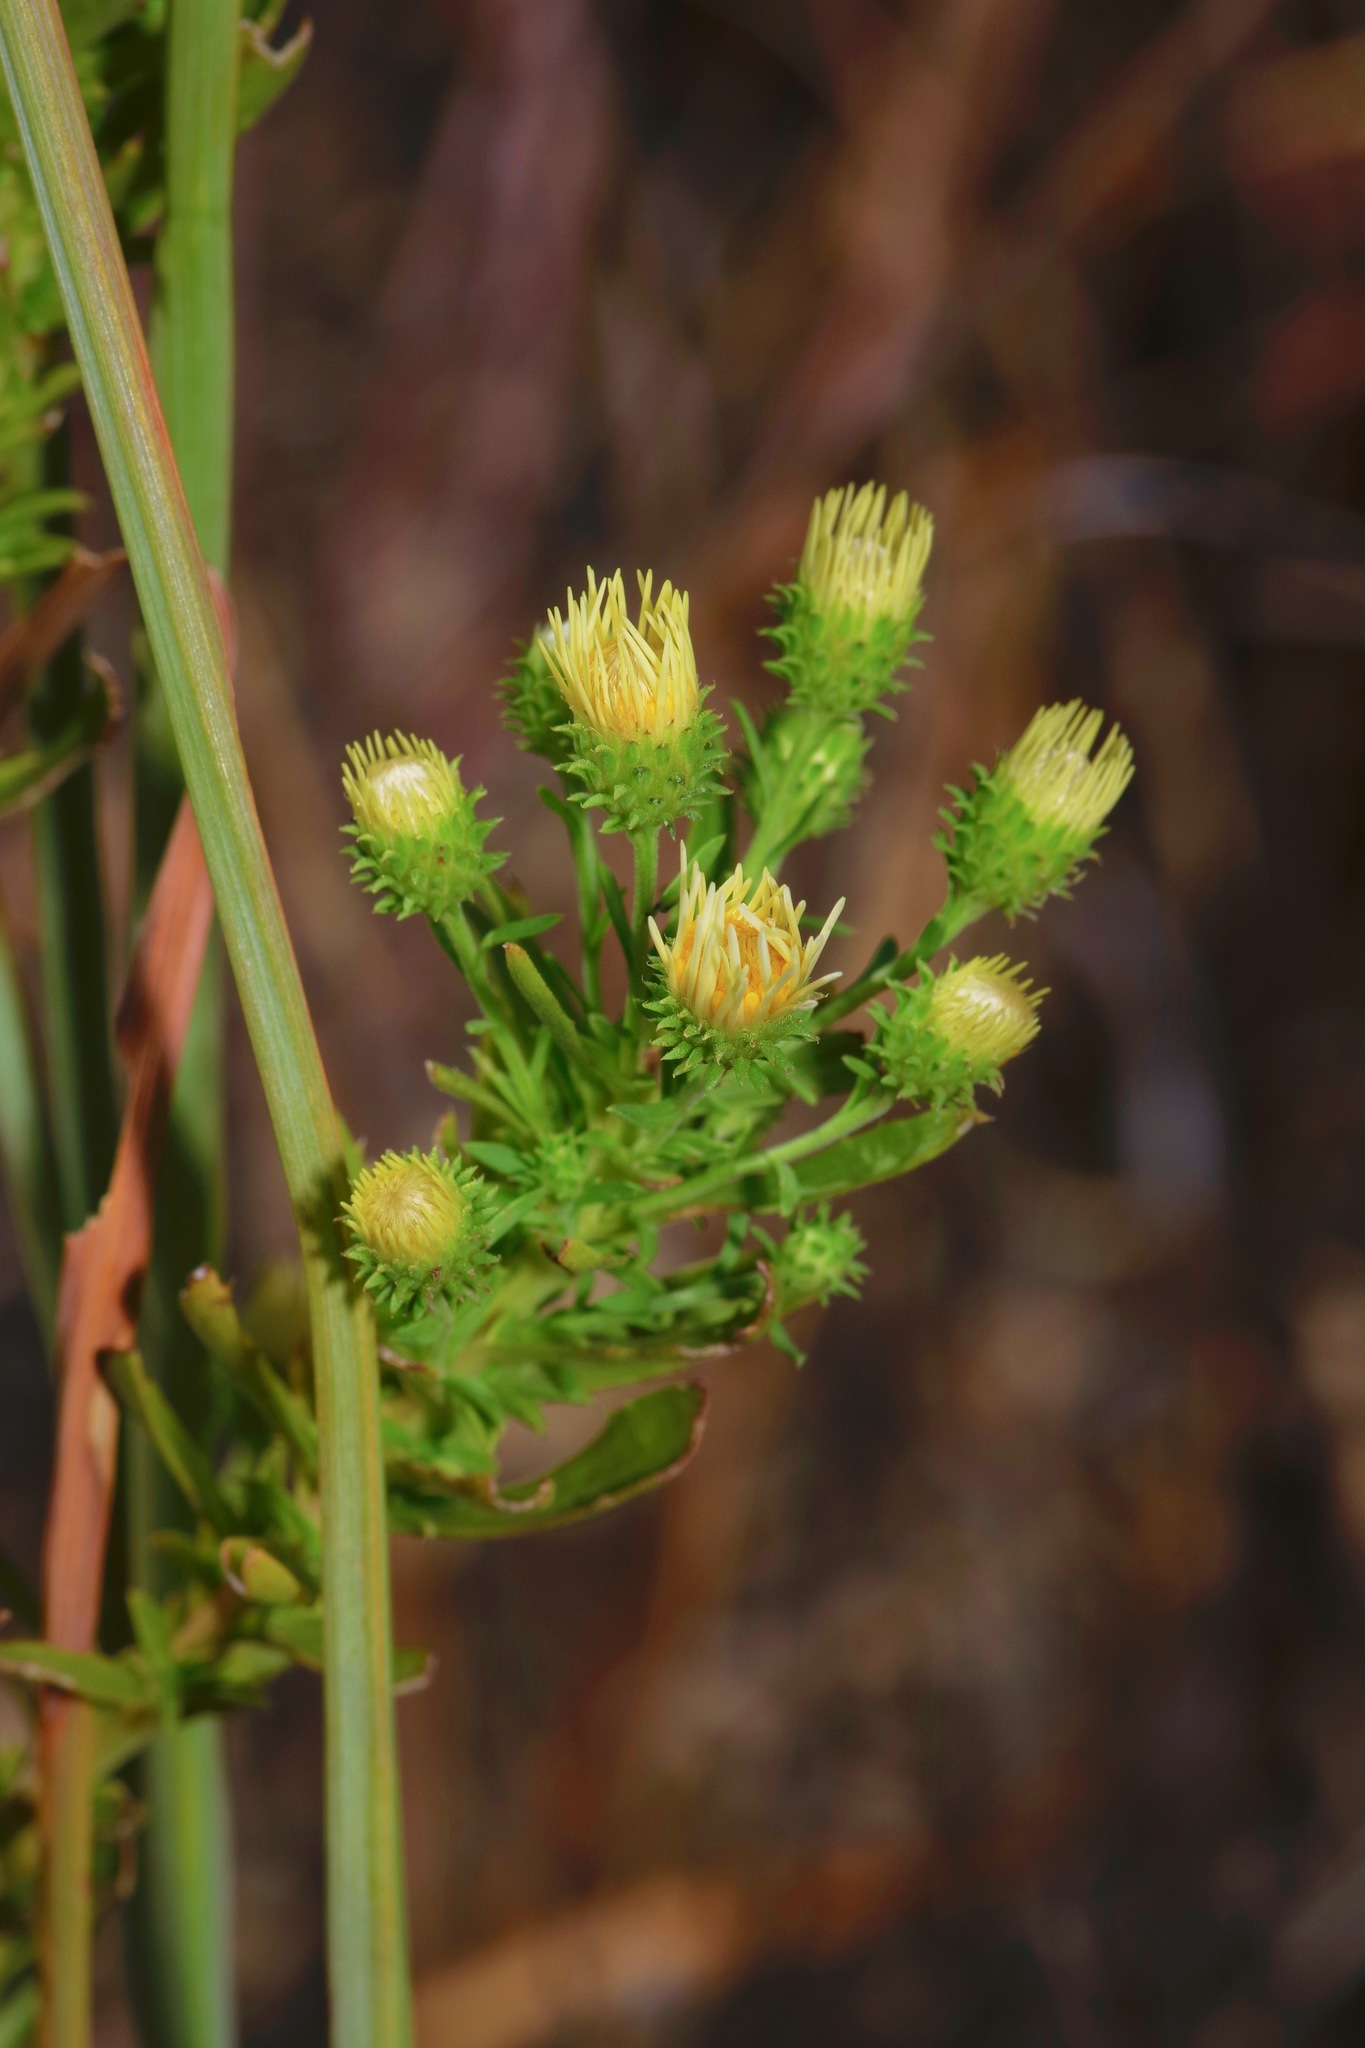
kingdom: Plantae
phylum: Tracheophyta
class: Magnoliopsida
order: Asterales
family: Asteraceae
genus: Dieteria
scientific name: Dieteria canescens
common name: Hoary-aster
